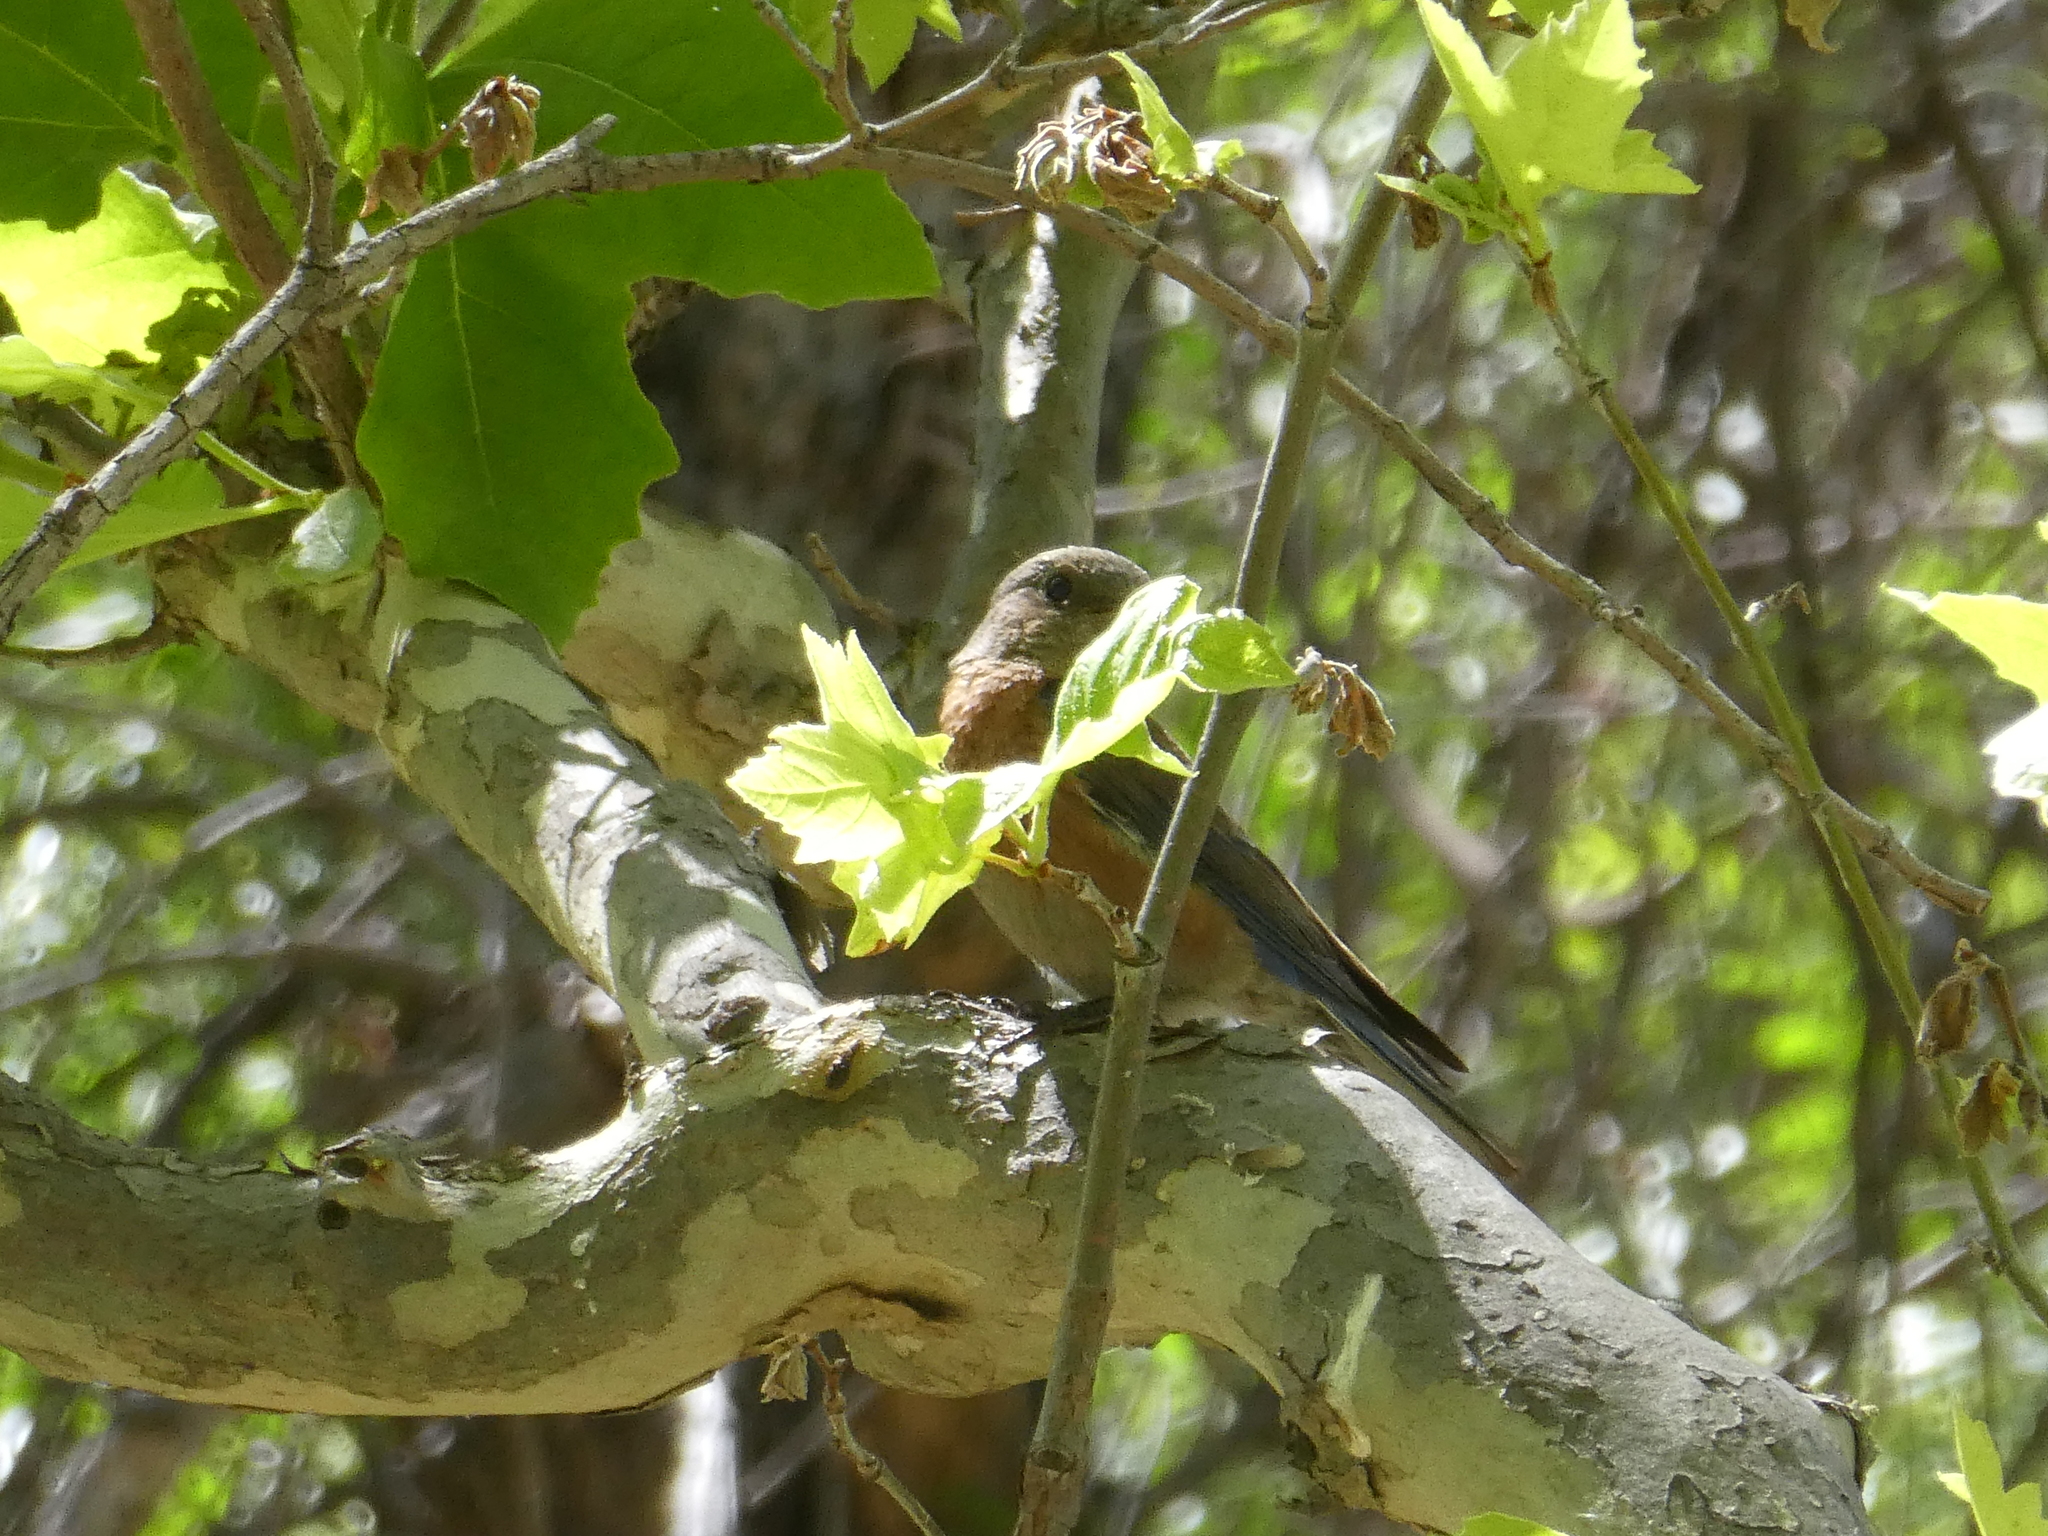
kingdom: Animalia
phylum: Chordata
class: Aves
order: Passeriformes
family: Turdidae
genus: Sialia
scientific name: Sialia mexicana
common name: Western bluebird
